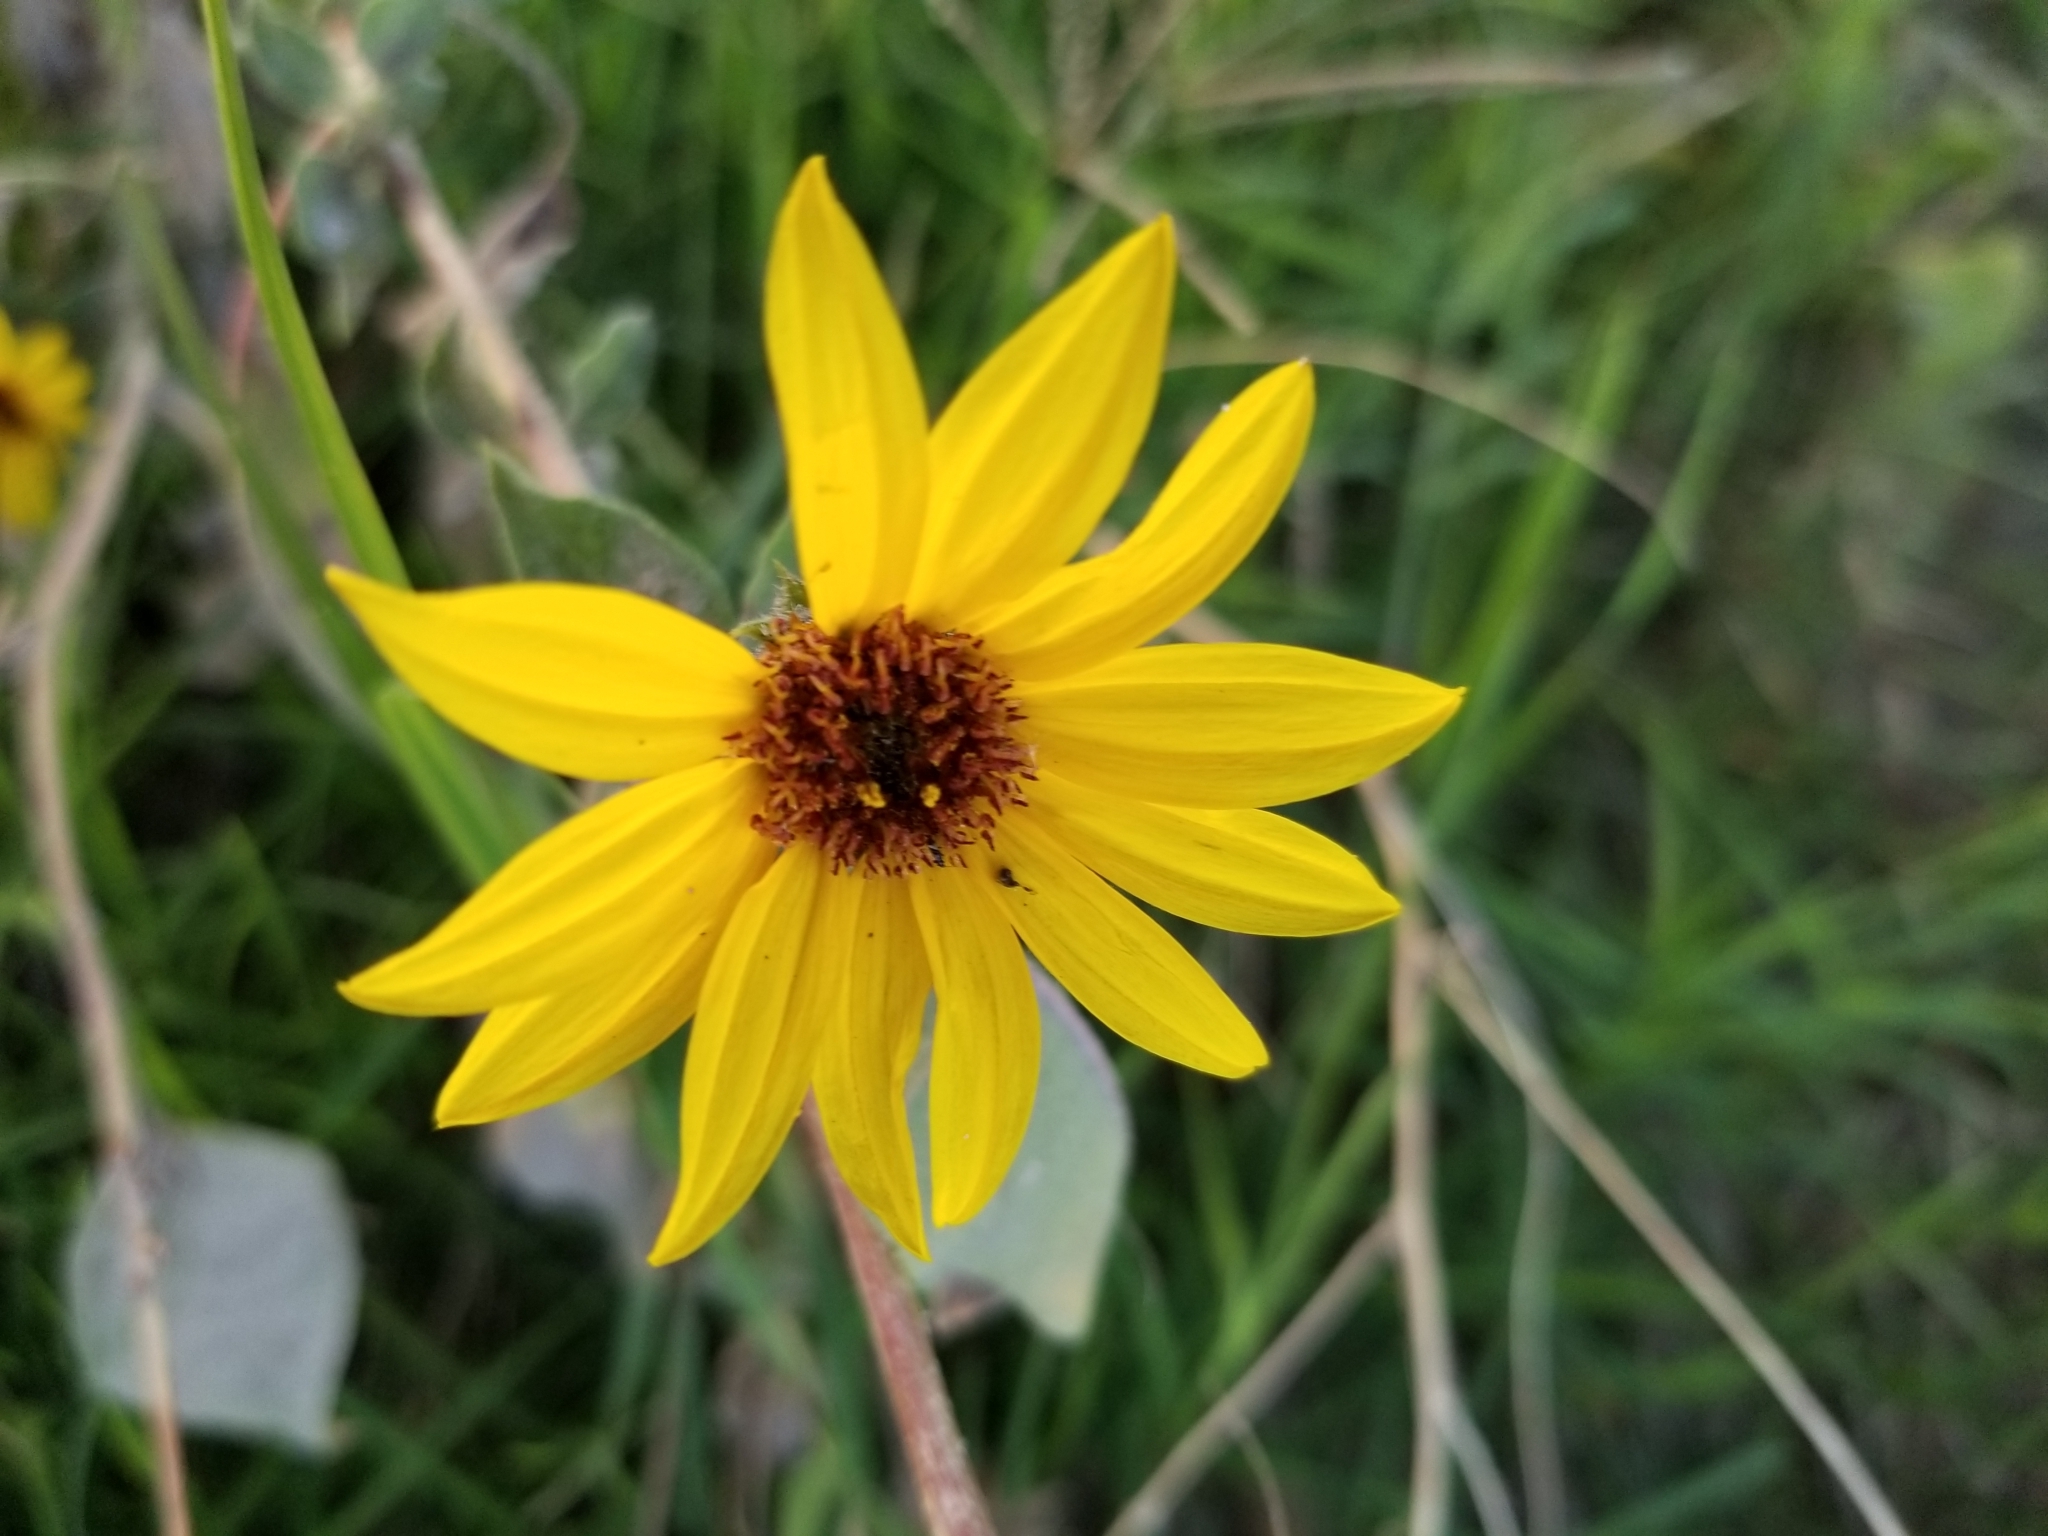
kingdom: Plantae
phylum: Tracheophyta
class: Magnoliopsida
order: Asterales
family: Asteraceae
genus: Helianthus
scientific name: Helianthus annuus
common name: Sunflower
